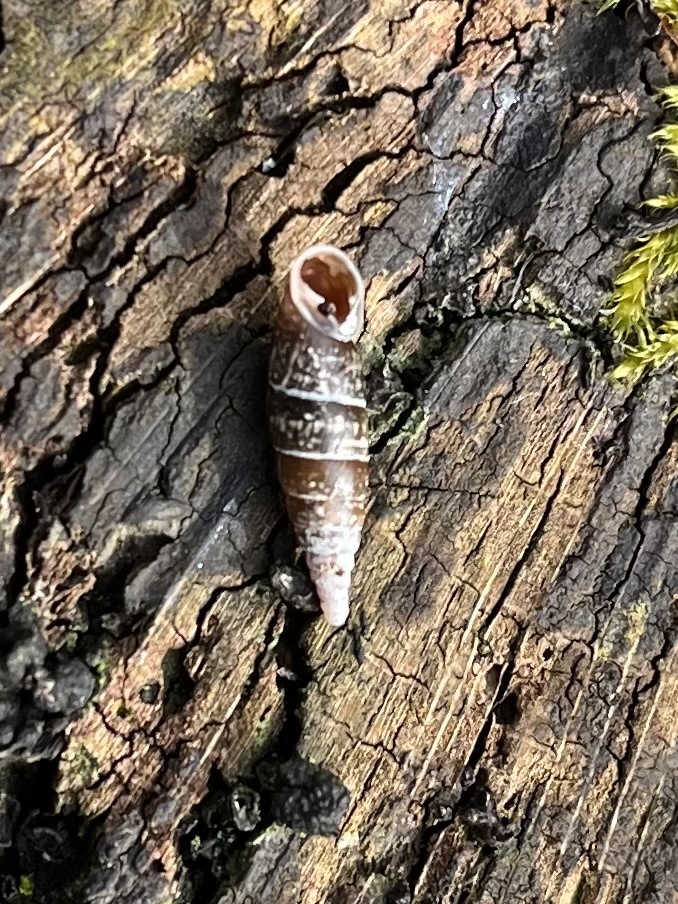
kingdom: Animalia
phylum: Mollusca
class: Gastropoda
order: Stylommatophora
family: Clausiliidae
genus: Cochlodina
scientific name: Cochlodina laminata
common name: Plaited door snail
